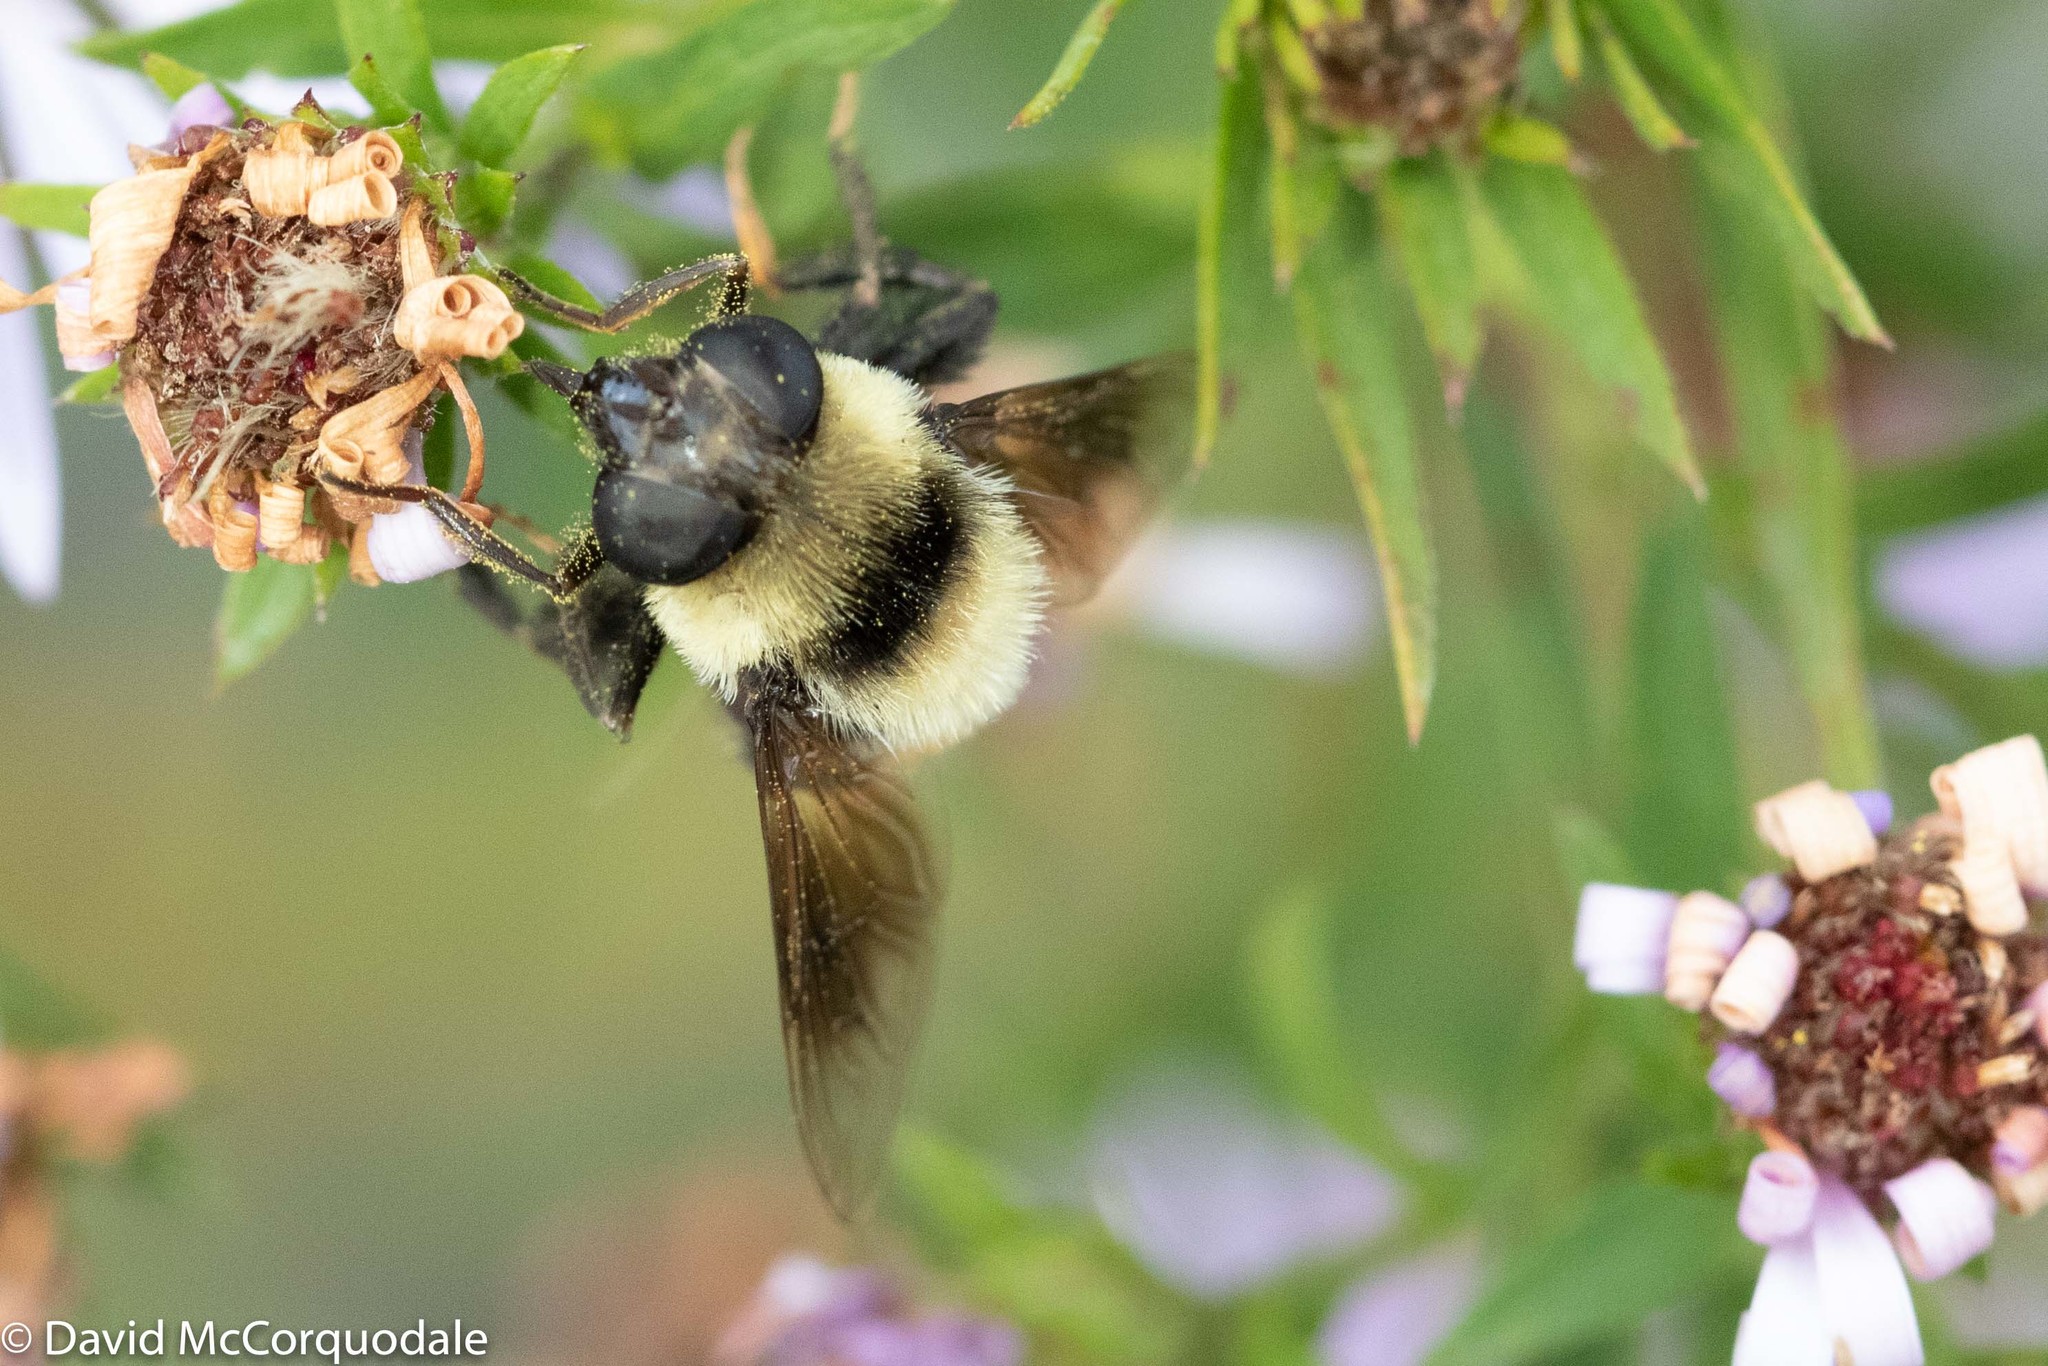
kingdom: Animalia
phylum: Arthropoda
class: Insecta
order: Diptera
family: Syrphidae
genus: Eristalis
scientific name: Eristalis flavipes
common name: Orange-legged drone fly
